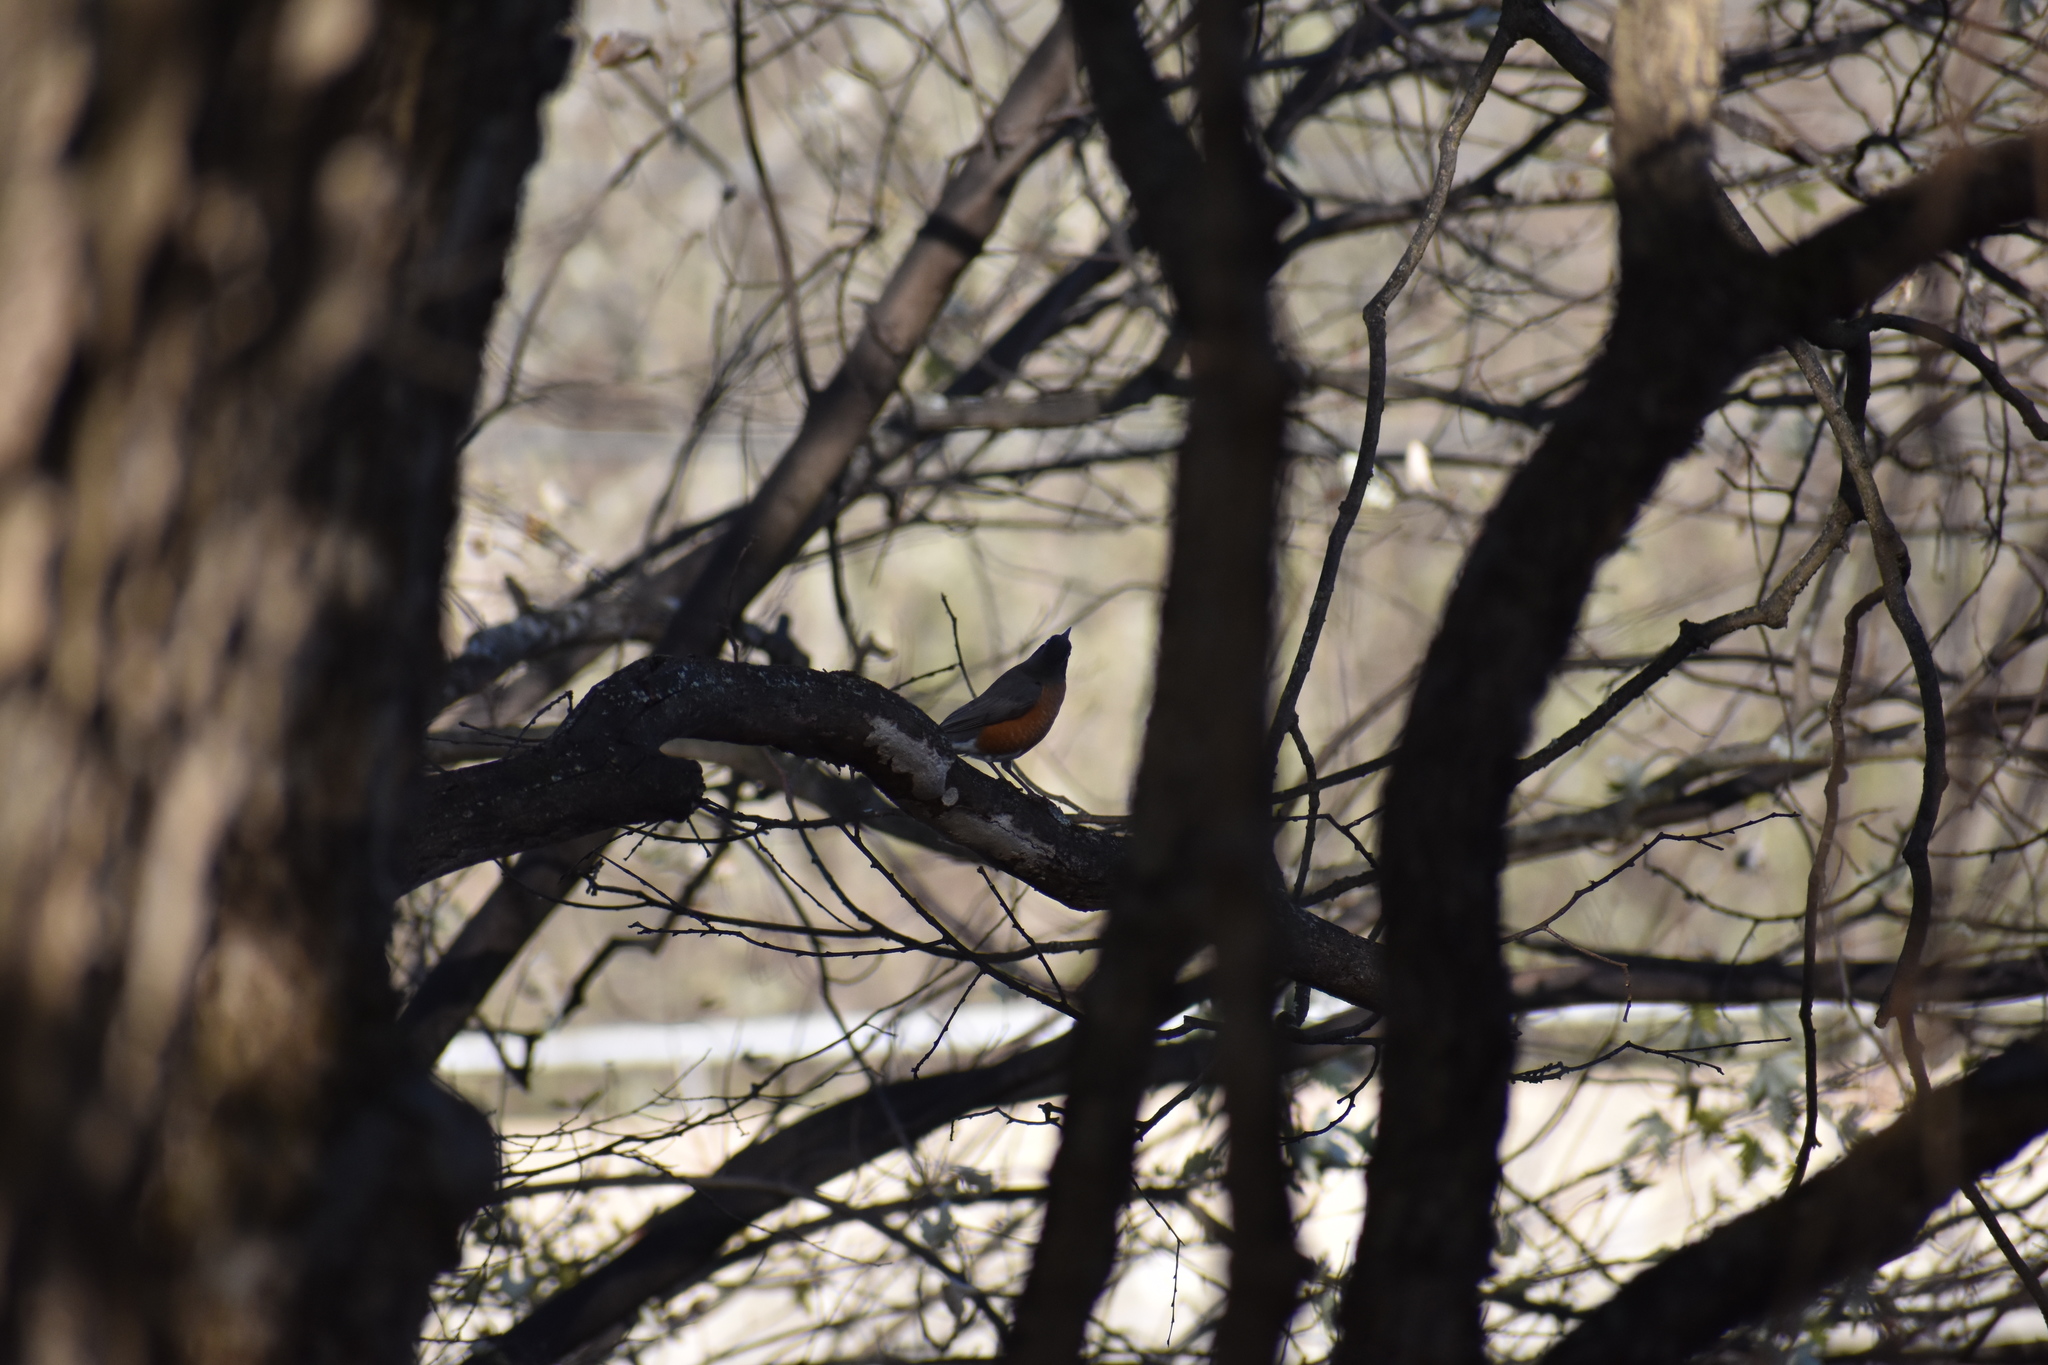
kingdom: Animalia
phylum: Chordata
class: Aves
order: Passeriformes
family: Turdidae
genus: Turdus
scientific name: Turdus migratorius
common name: American robin
